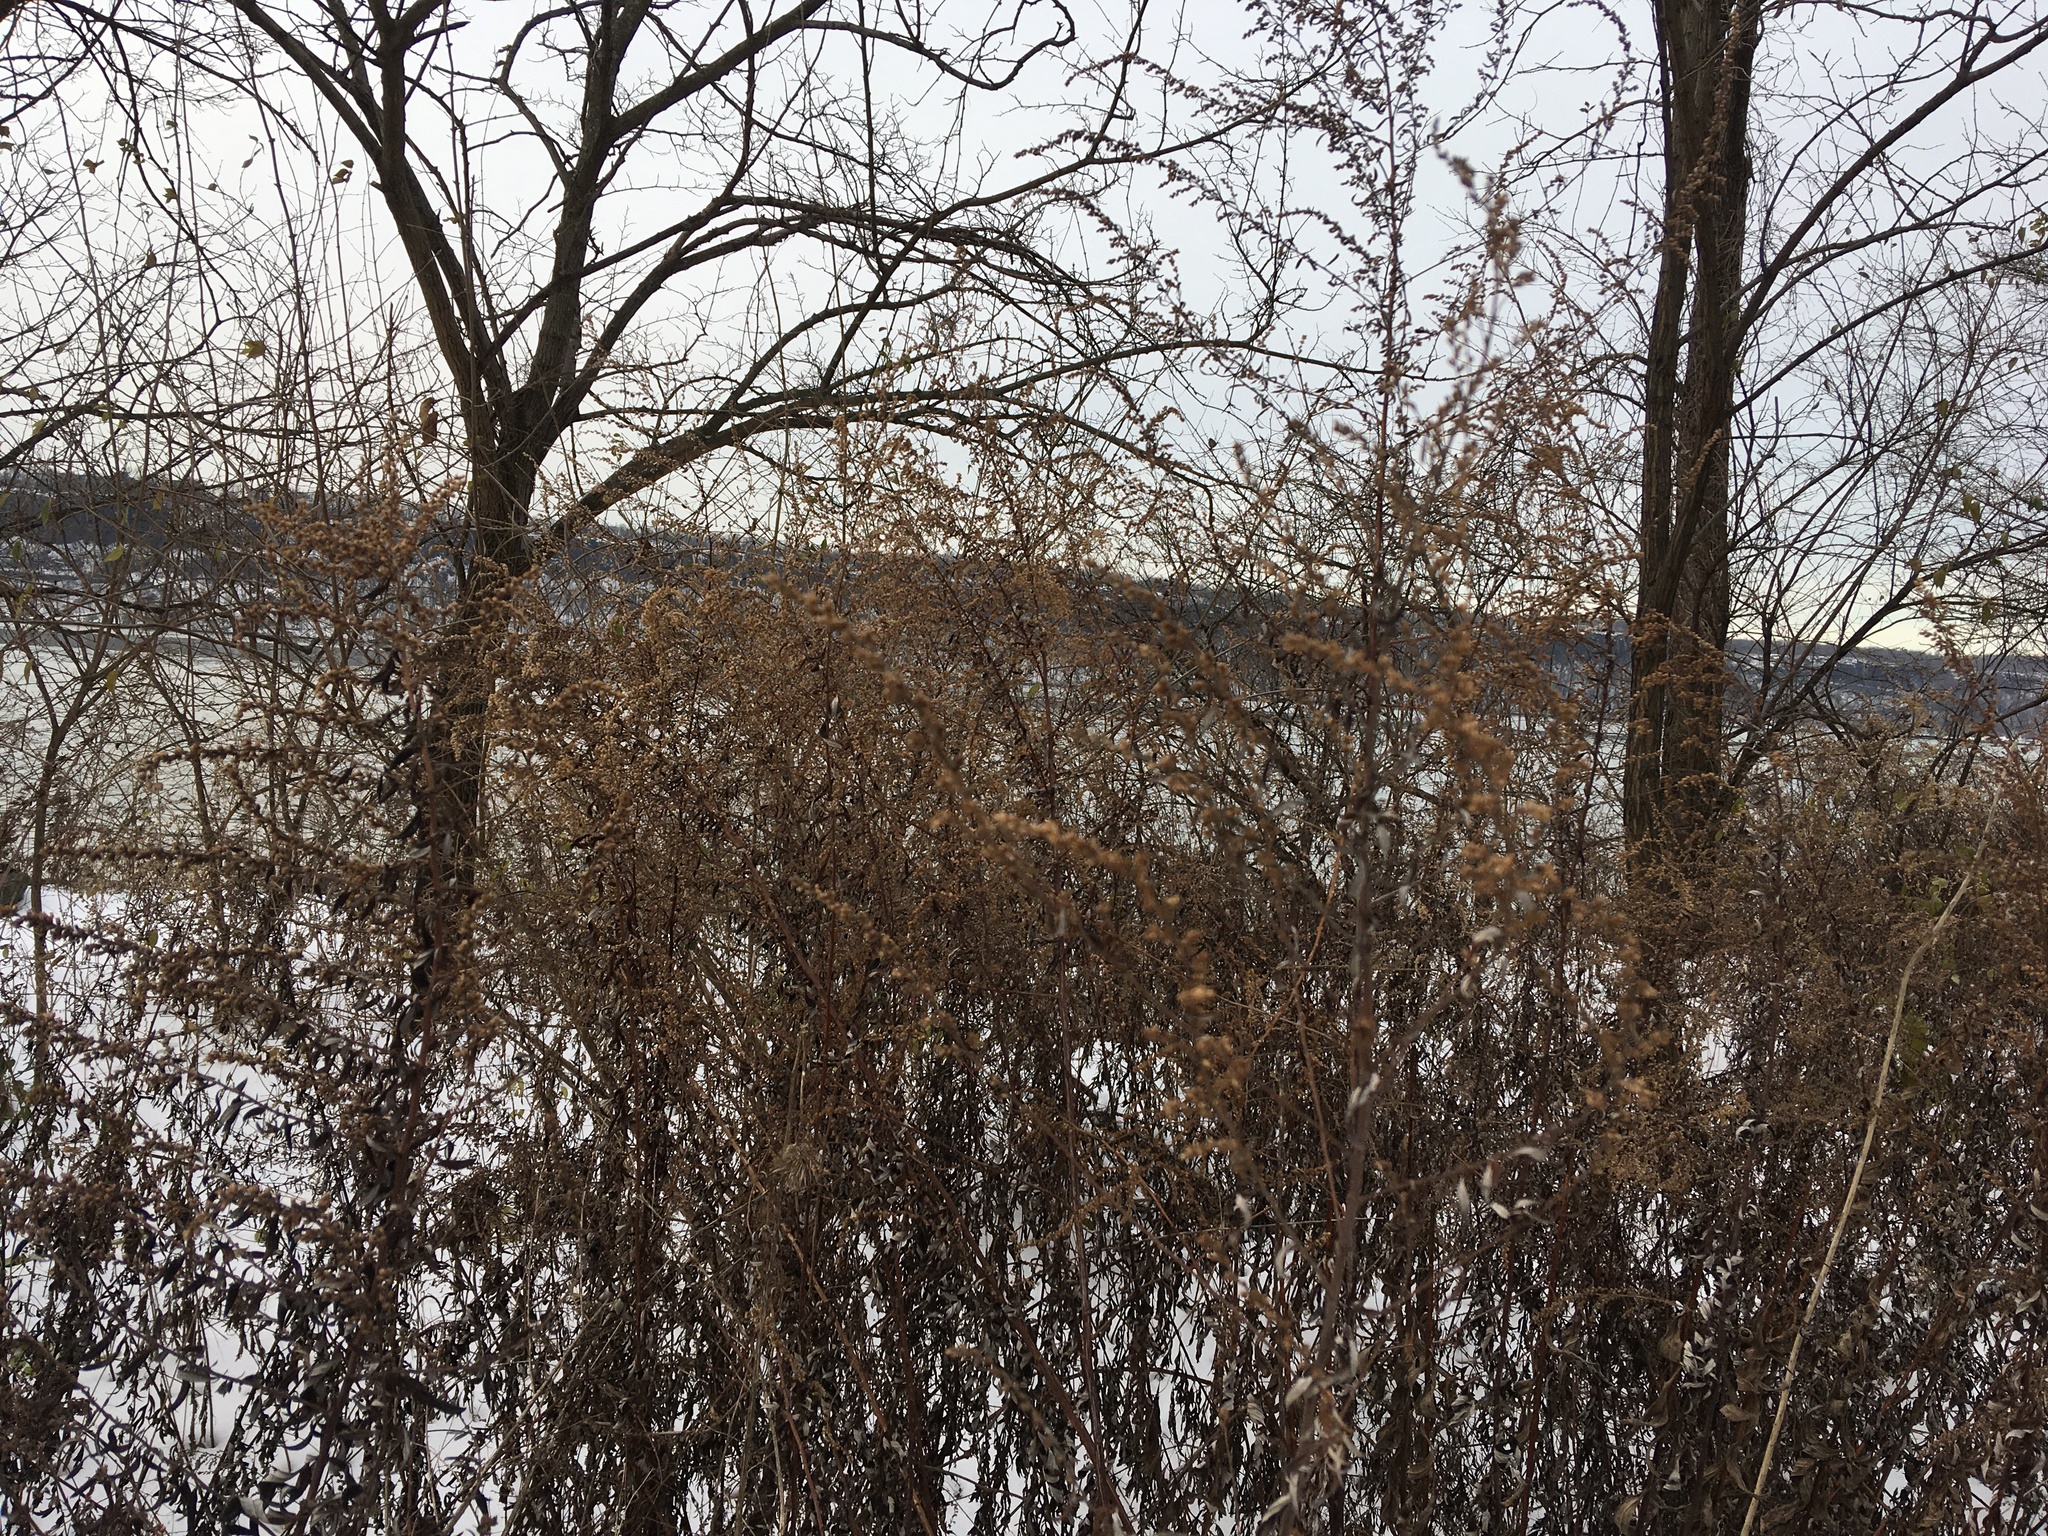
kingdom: Plantae
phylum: Tracheophyta
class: Magnoliopsida
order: Asterales
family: Asteraceae
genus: Artemisia
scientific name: Artemisia vulgaris
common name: Mugwort
